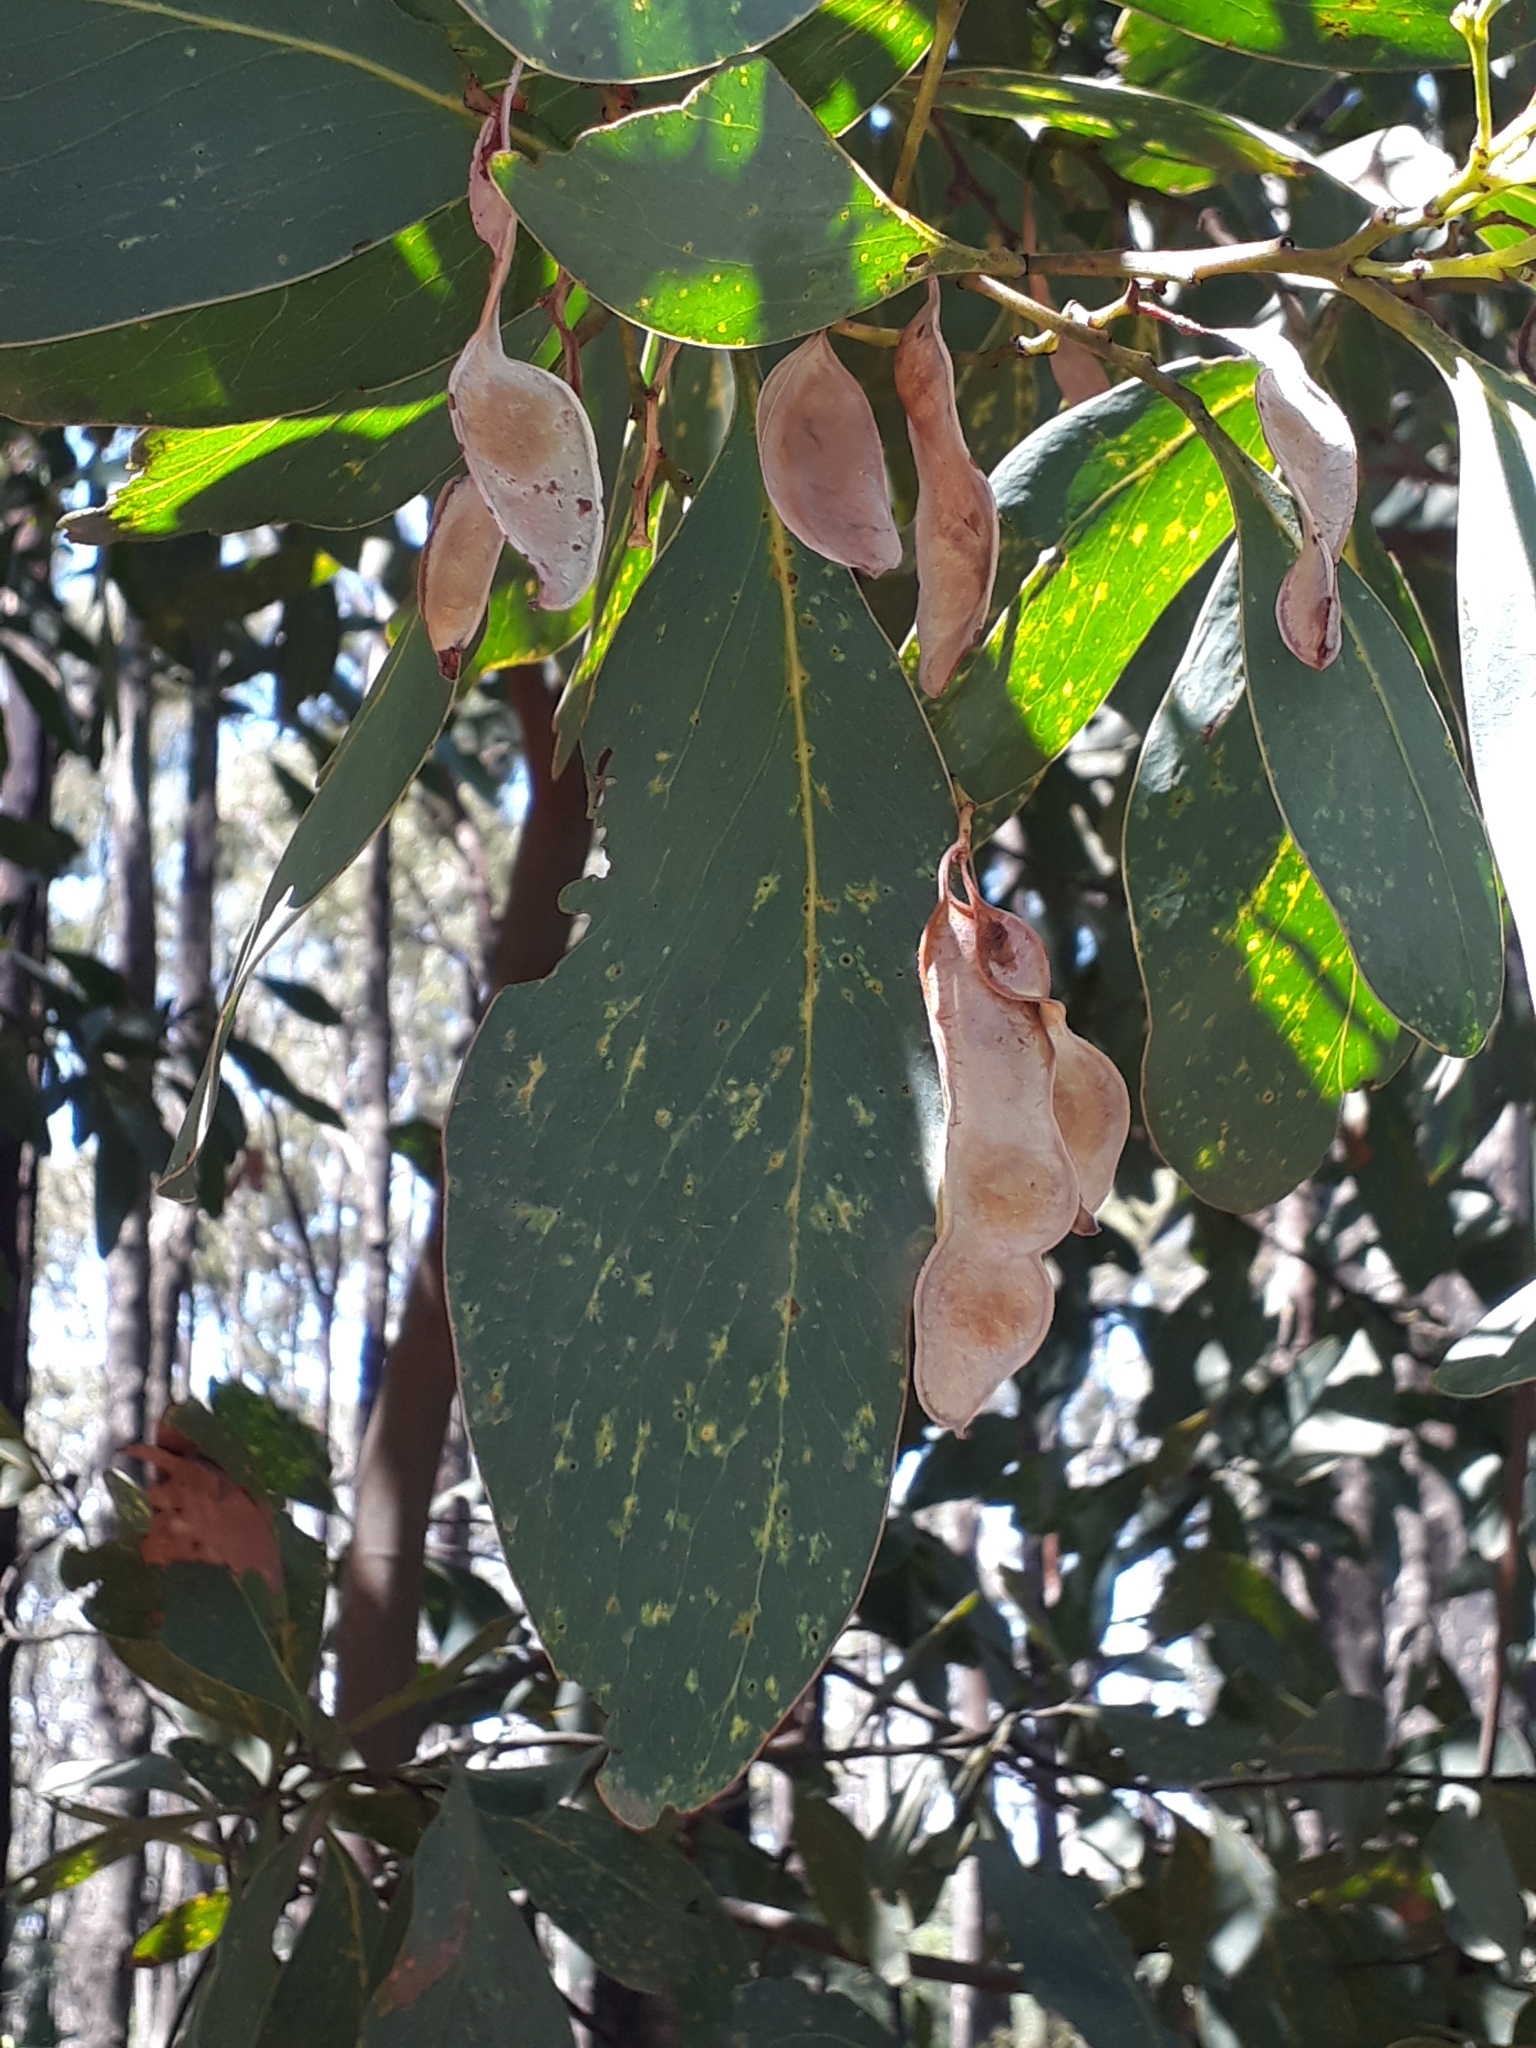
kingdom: Plantae
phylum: Tracheophyta
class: Magnoliopsida
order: Fabales
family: Fabaceae
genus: Acacia
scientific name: Acacia obliquinervia
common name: Mountain hickory wattle
